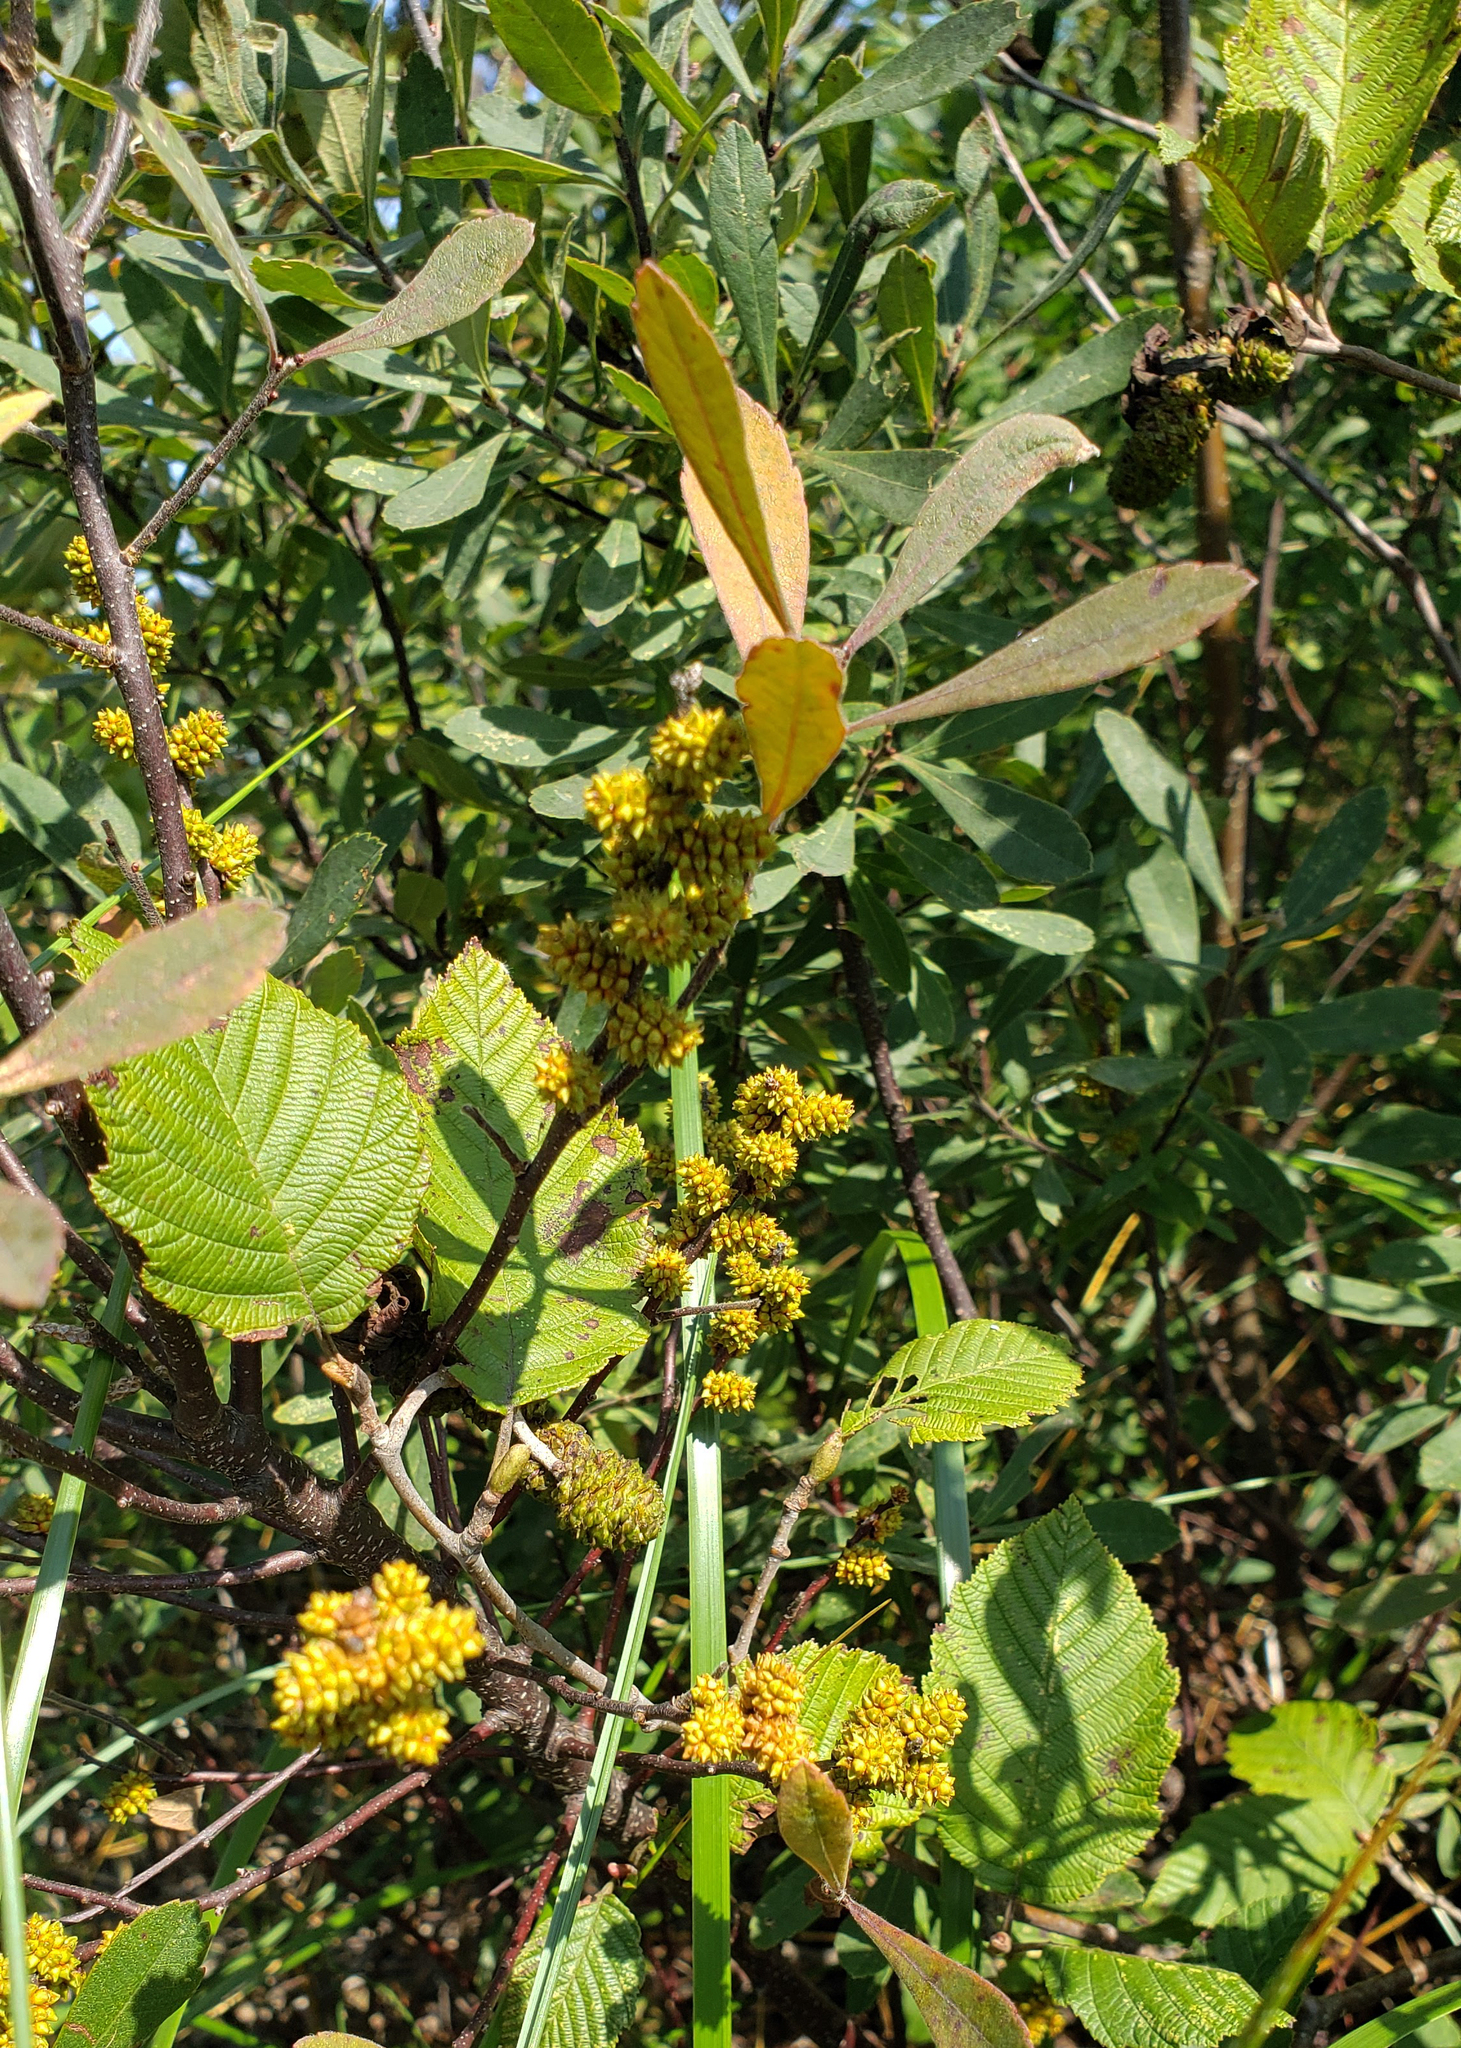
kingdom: Plantae
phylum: Tracheophyta
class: Magnoliopsida
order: Fagales
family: Myricaceae
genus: Myrica
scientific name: Myrica gale
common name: Sweet gale
